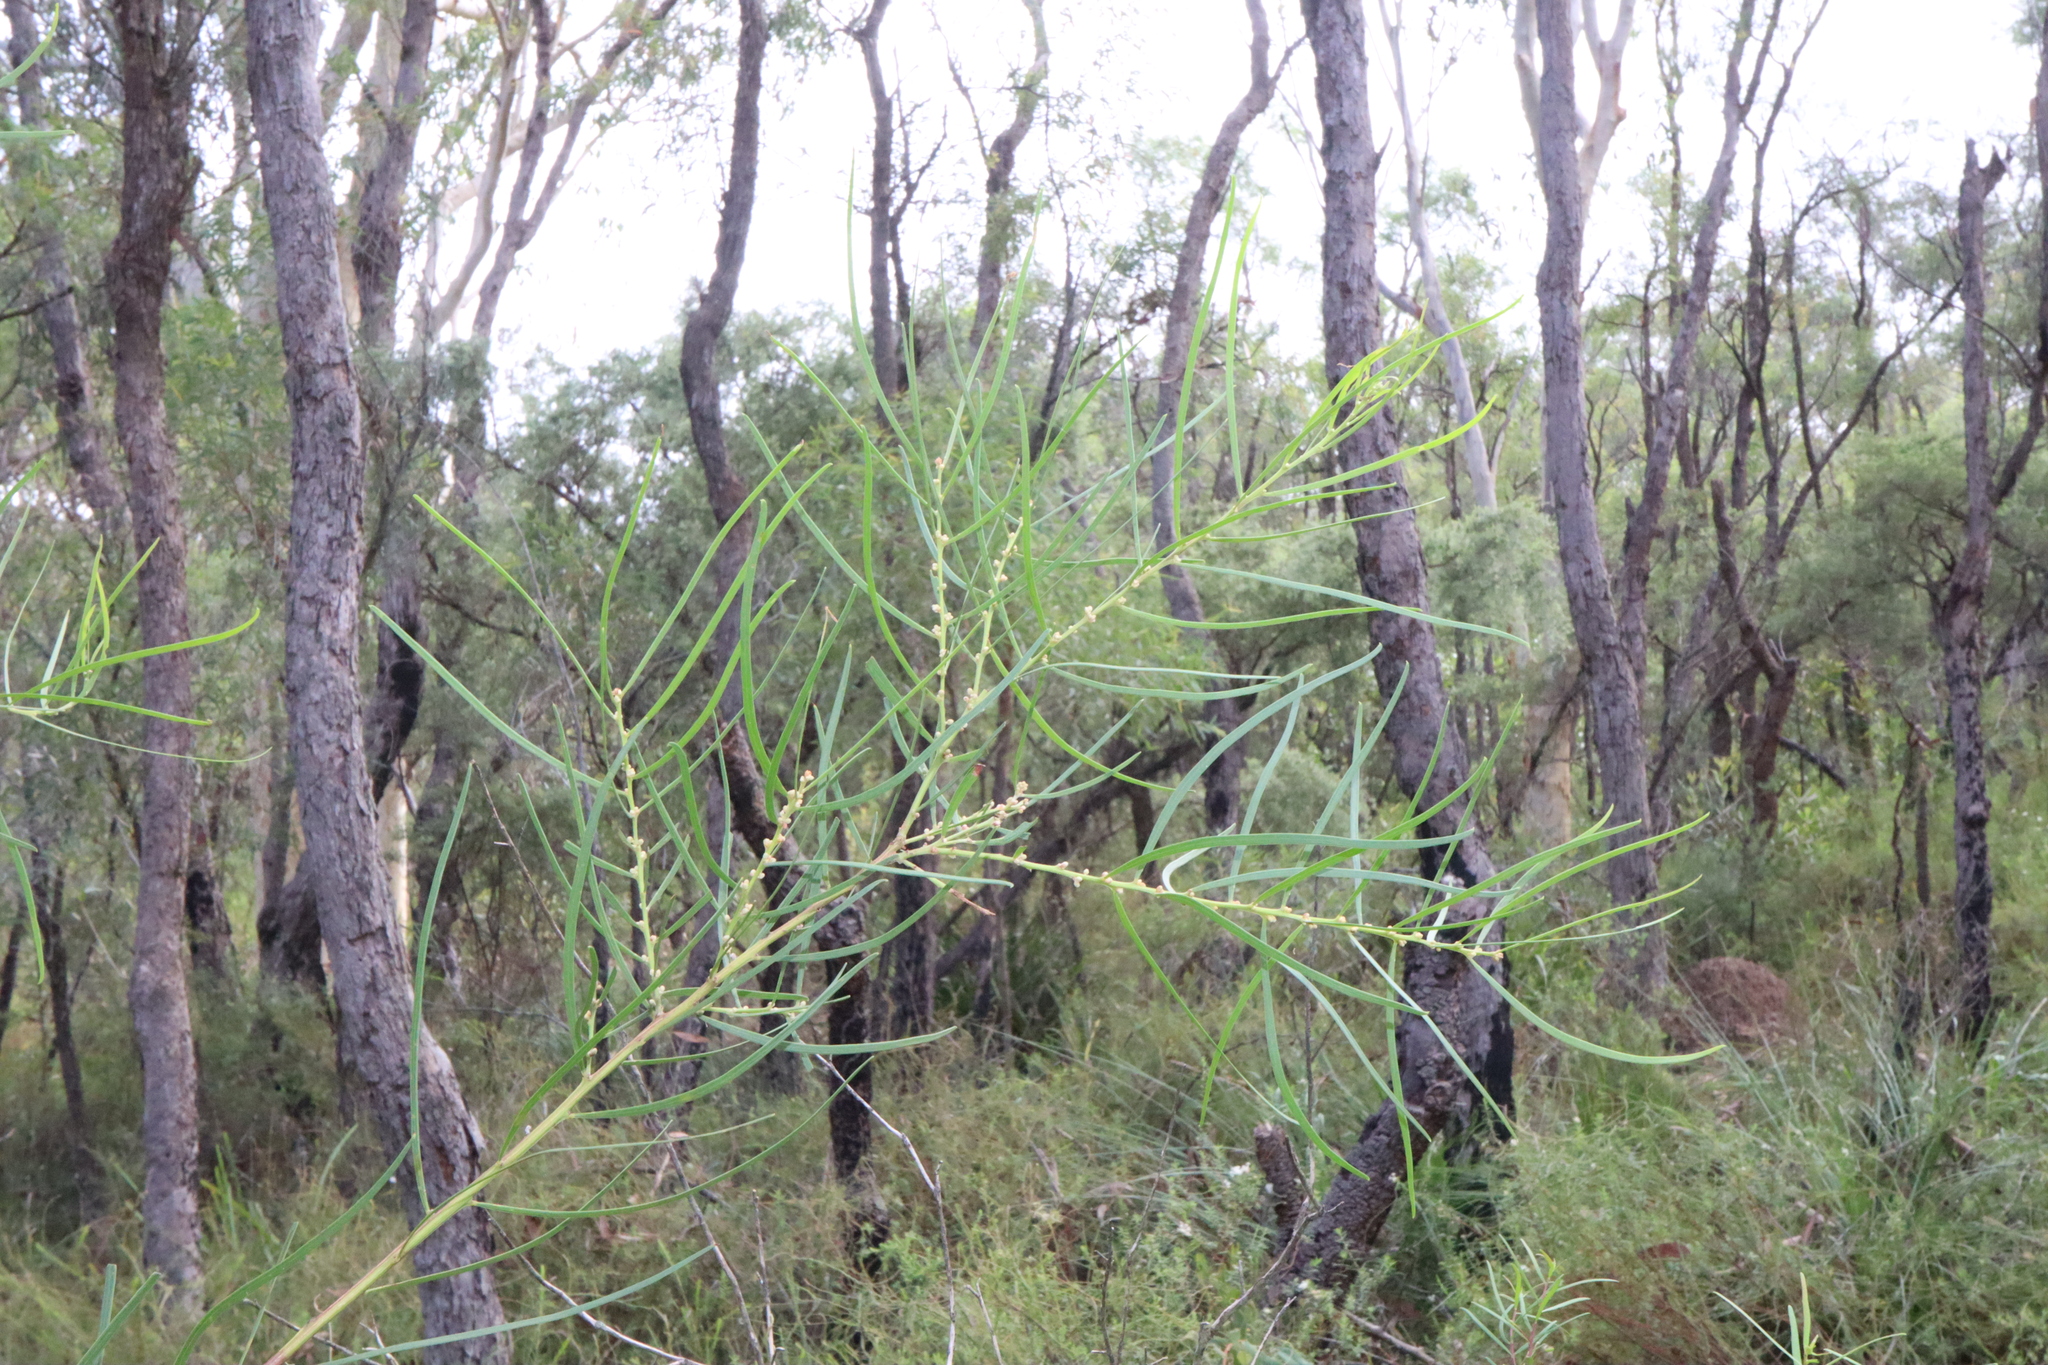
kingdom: Plantae
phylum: Tracheophyta
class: Magnoliopsida
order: Fabales
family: Fabaceae
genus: Acacia
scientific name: Acacia elongata
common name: Swamp wattle
